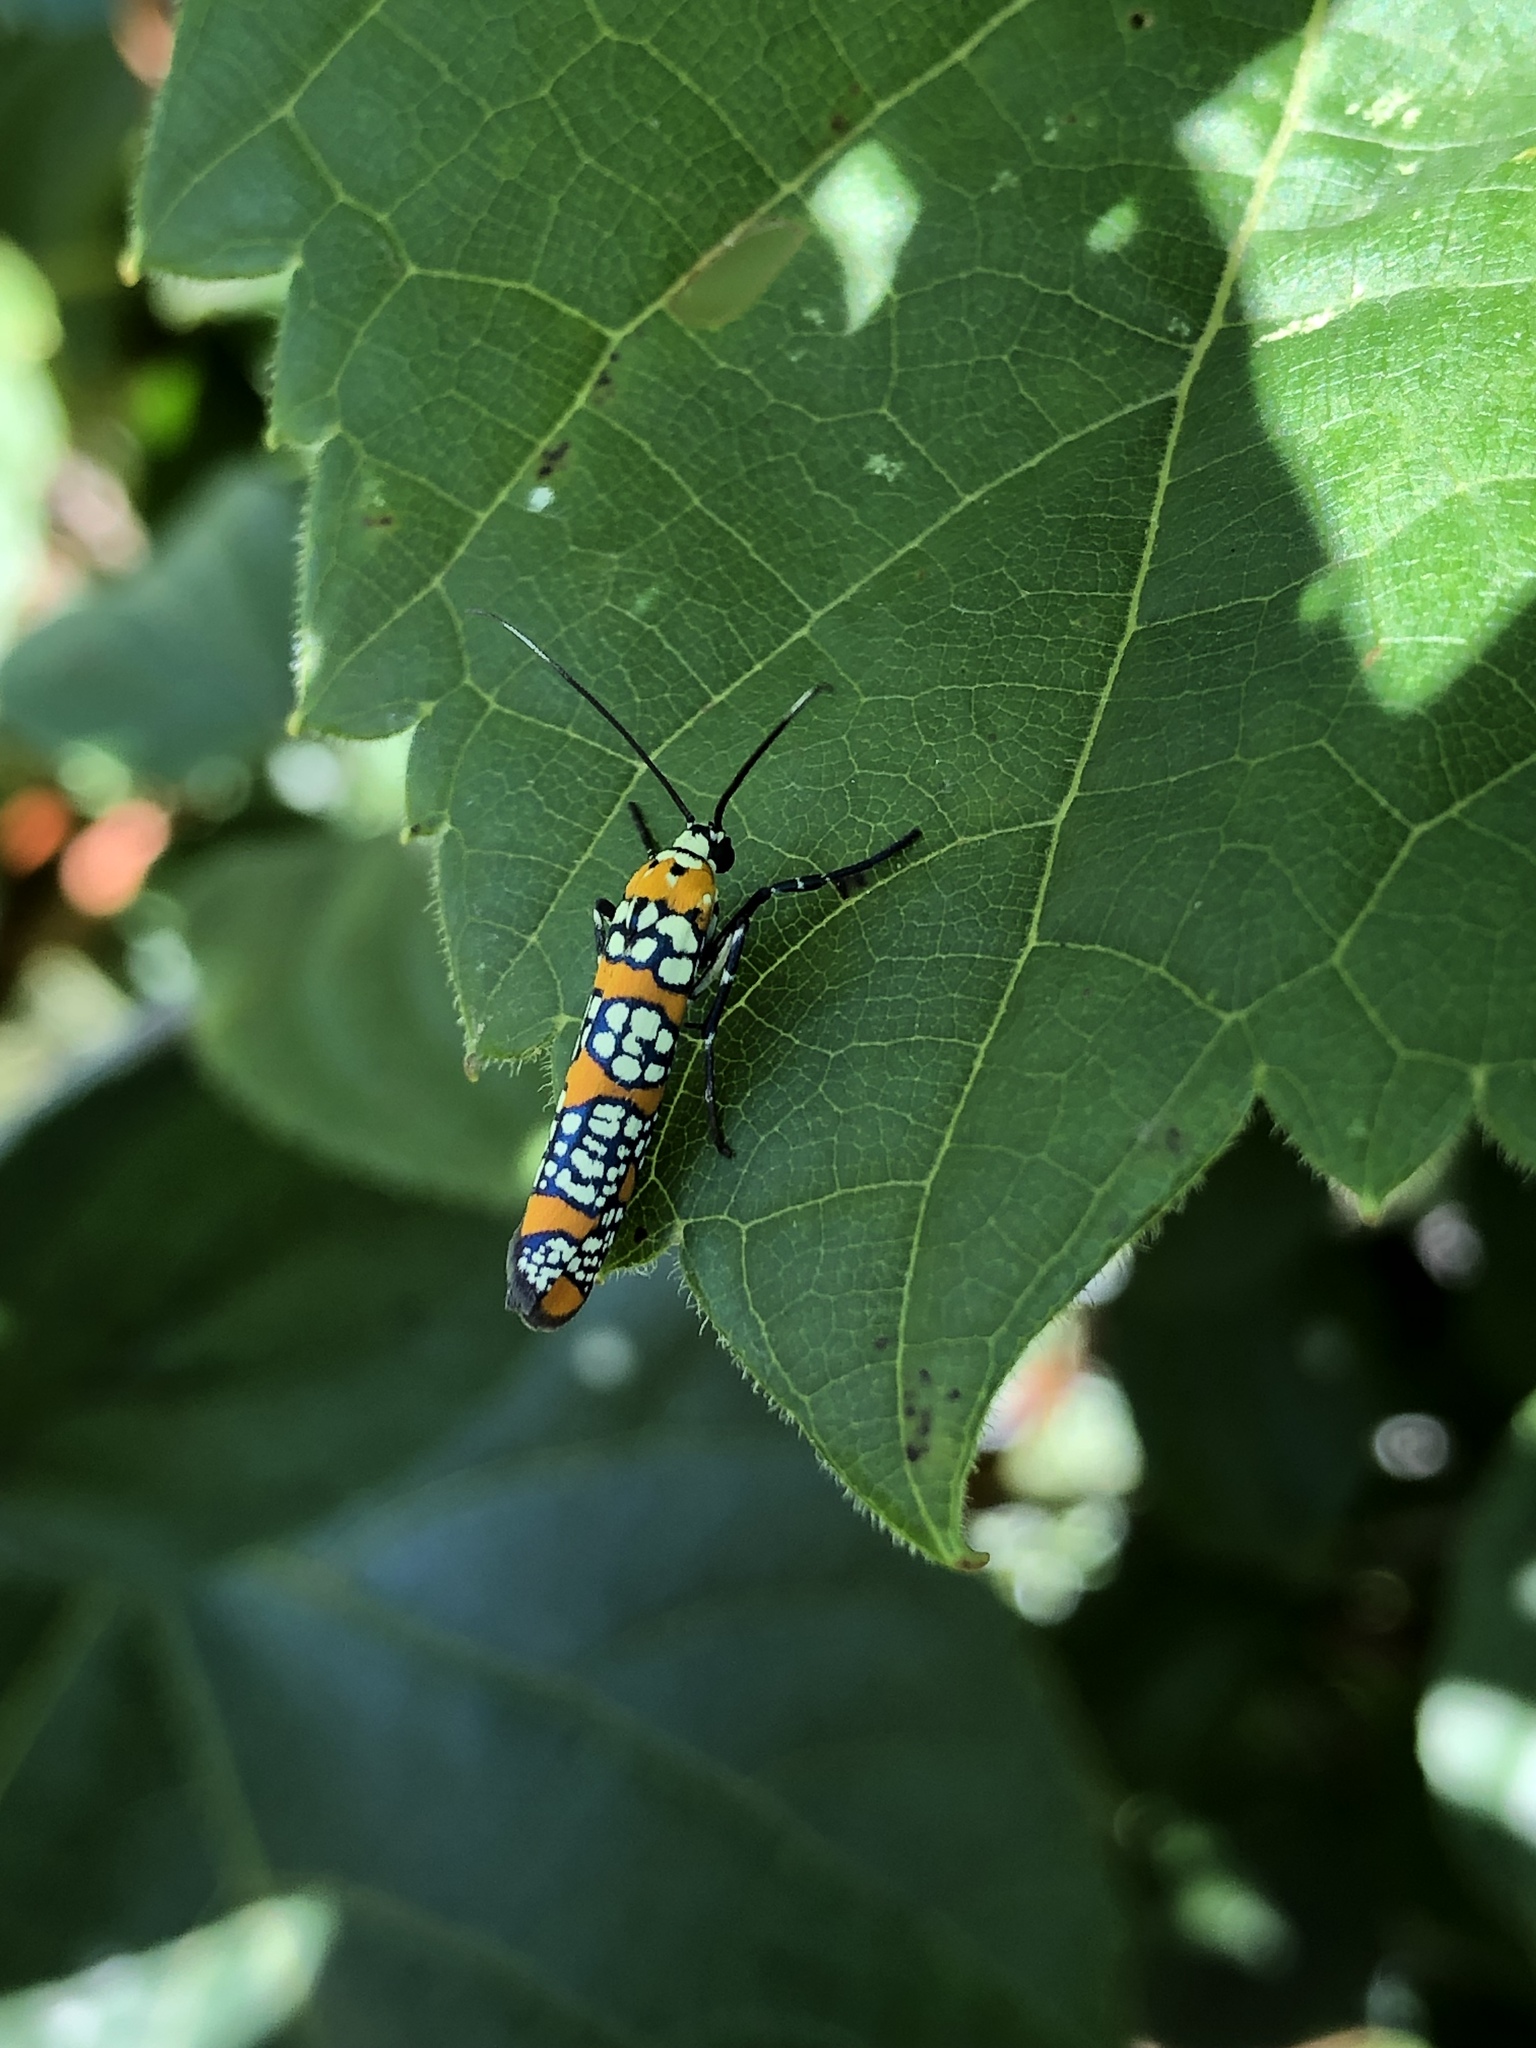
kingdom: Animalia
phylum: Arthropoda
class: Insecta
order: Lepidoptera
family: Attevidae
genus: Atteva
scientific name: Atteva punctella
